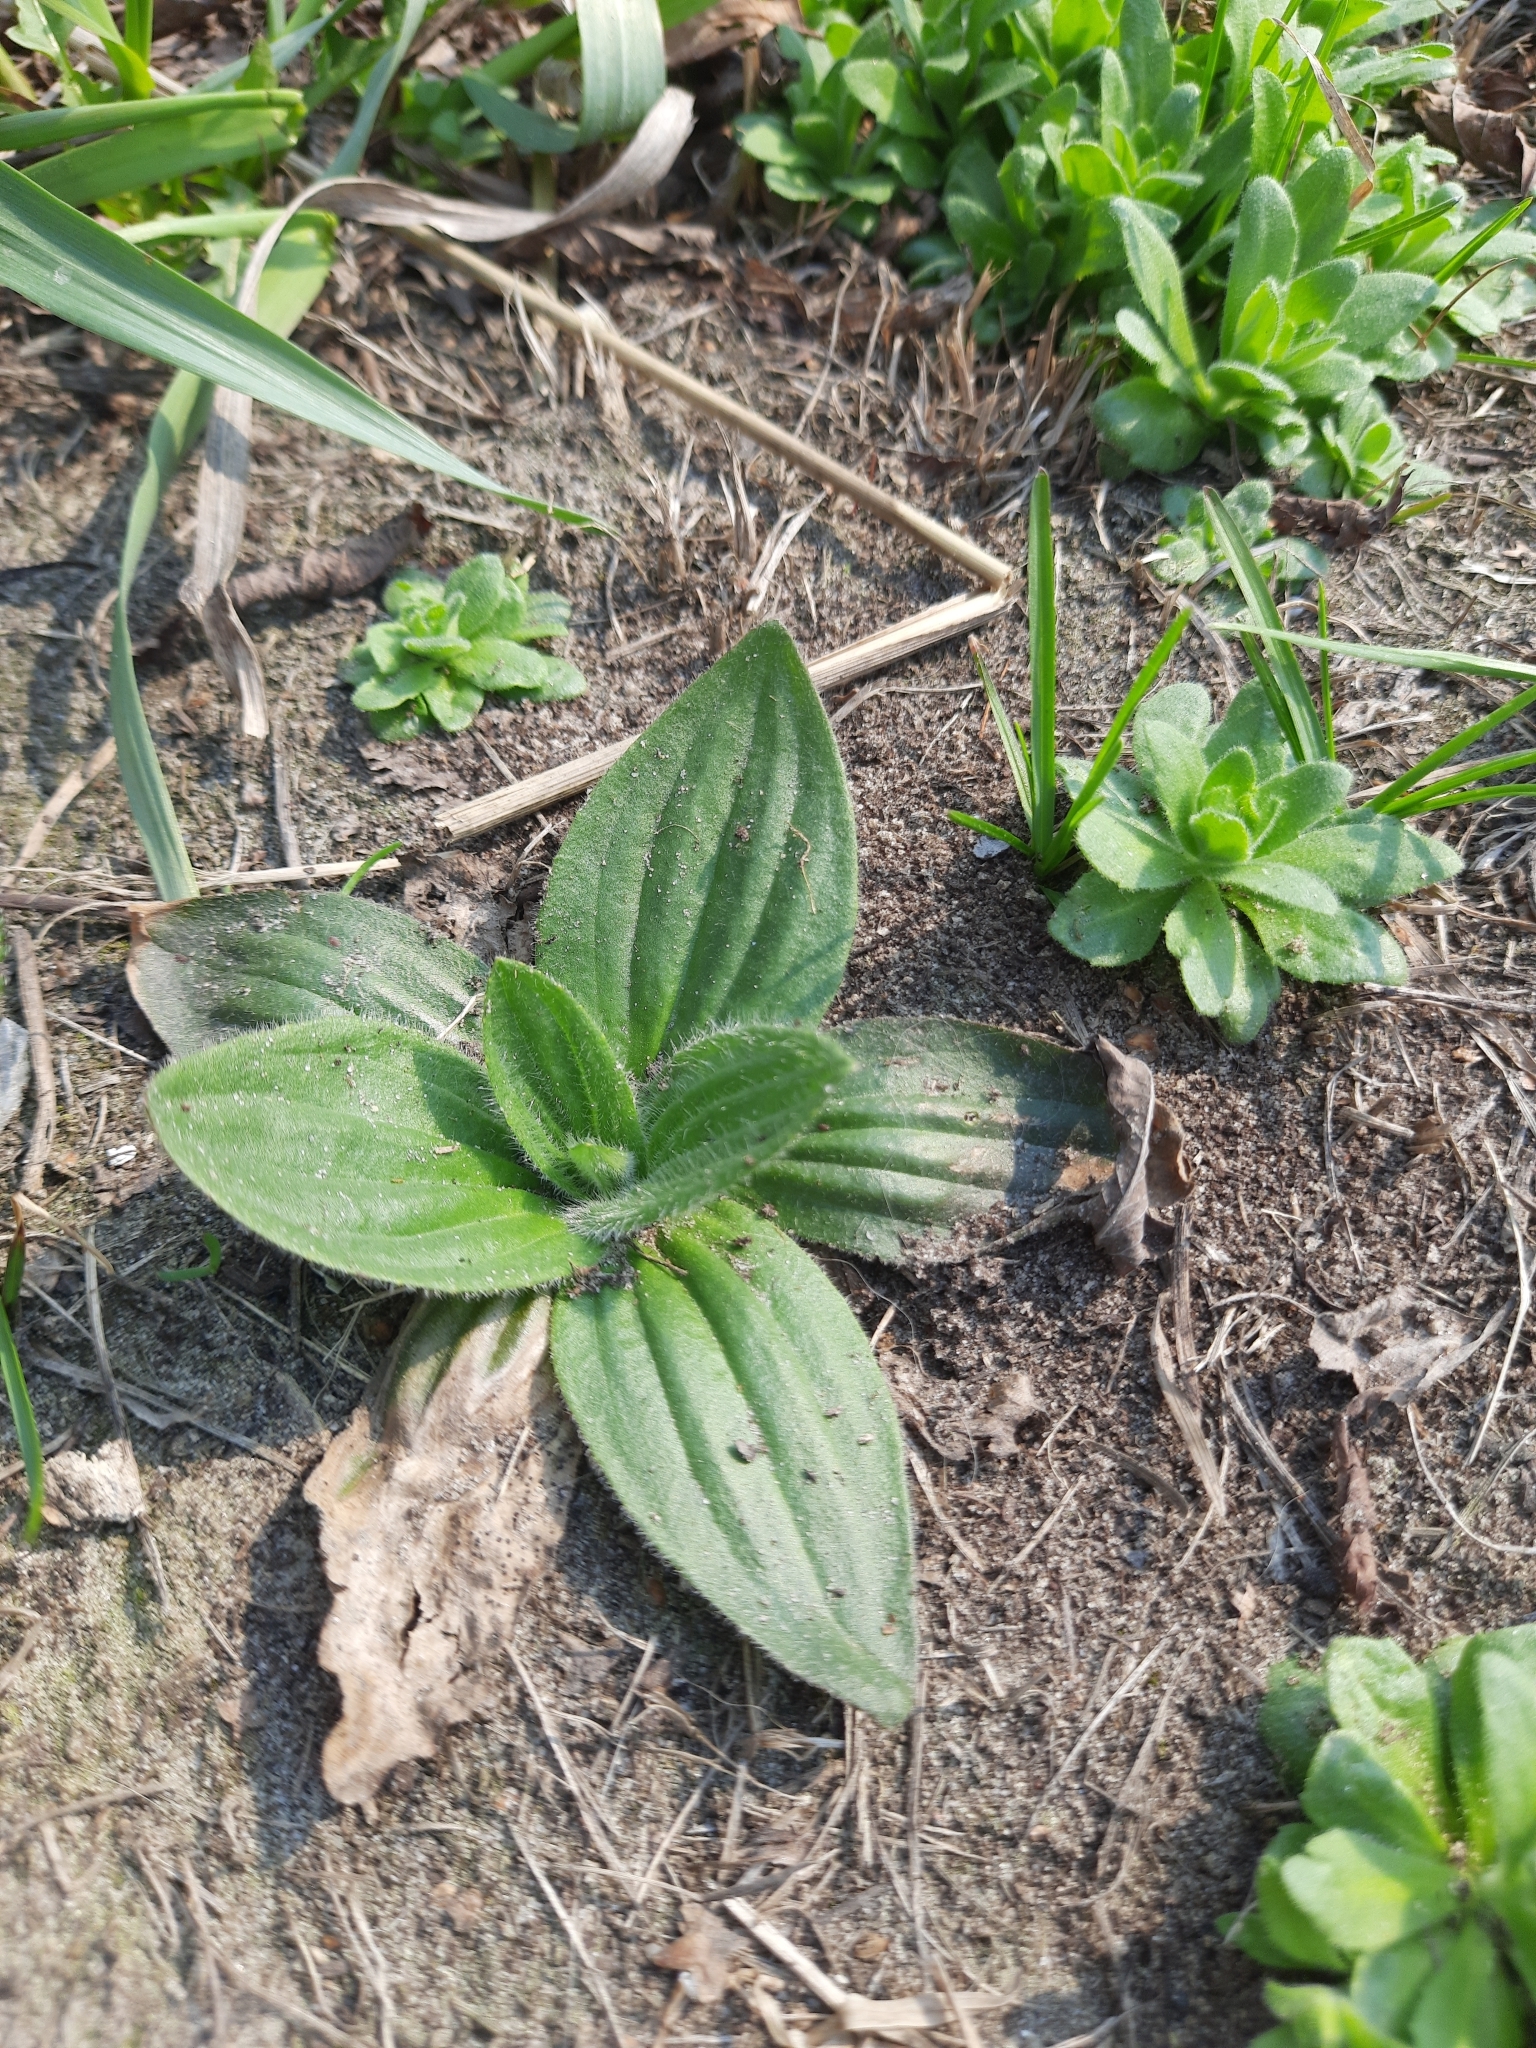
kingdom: Plantae
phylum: Tracheophyta
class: Magnoliopsida
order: Lamiales
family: Plantaginaceae
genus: Plantago
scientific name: Plantago media
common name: Hoary plantain
